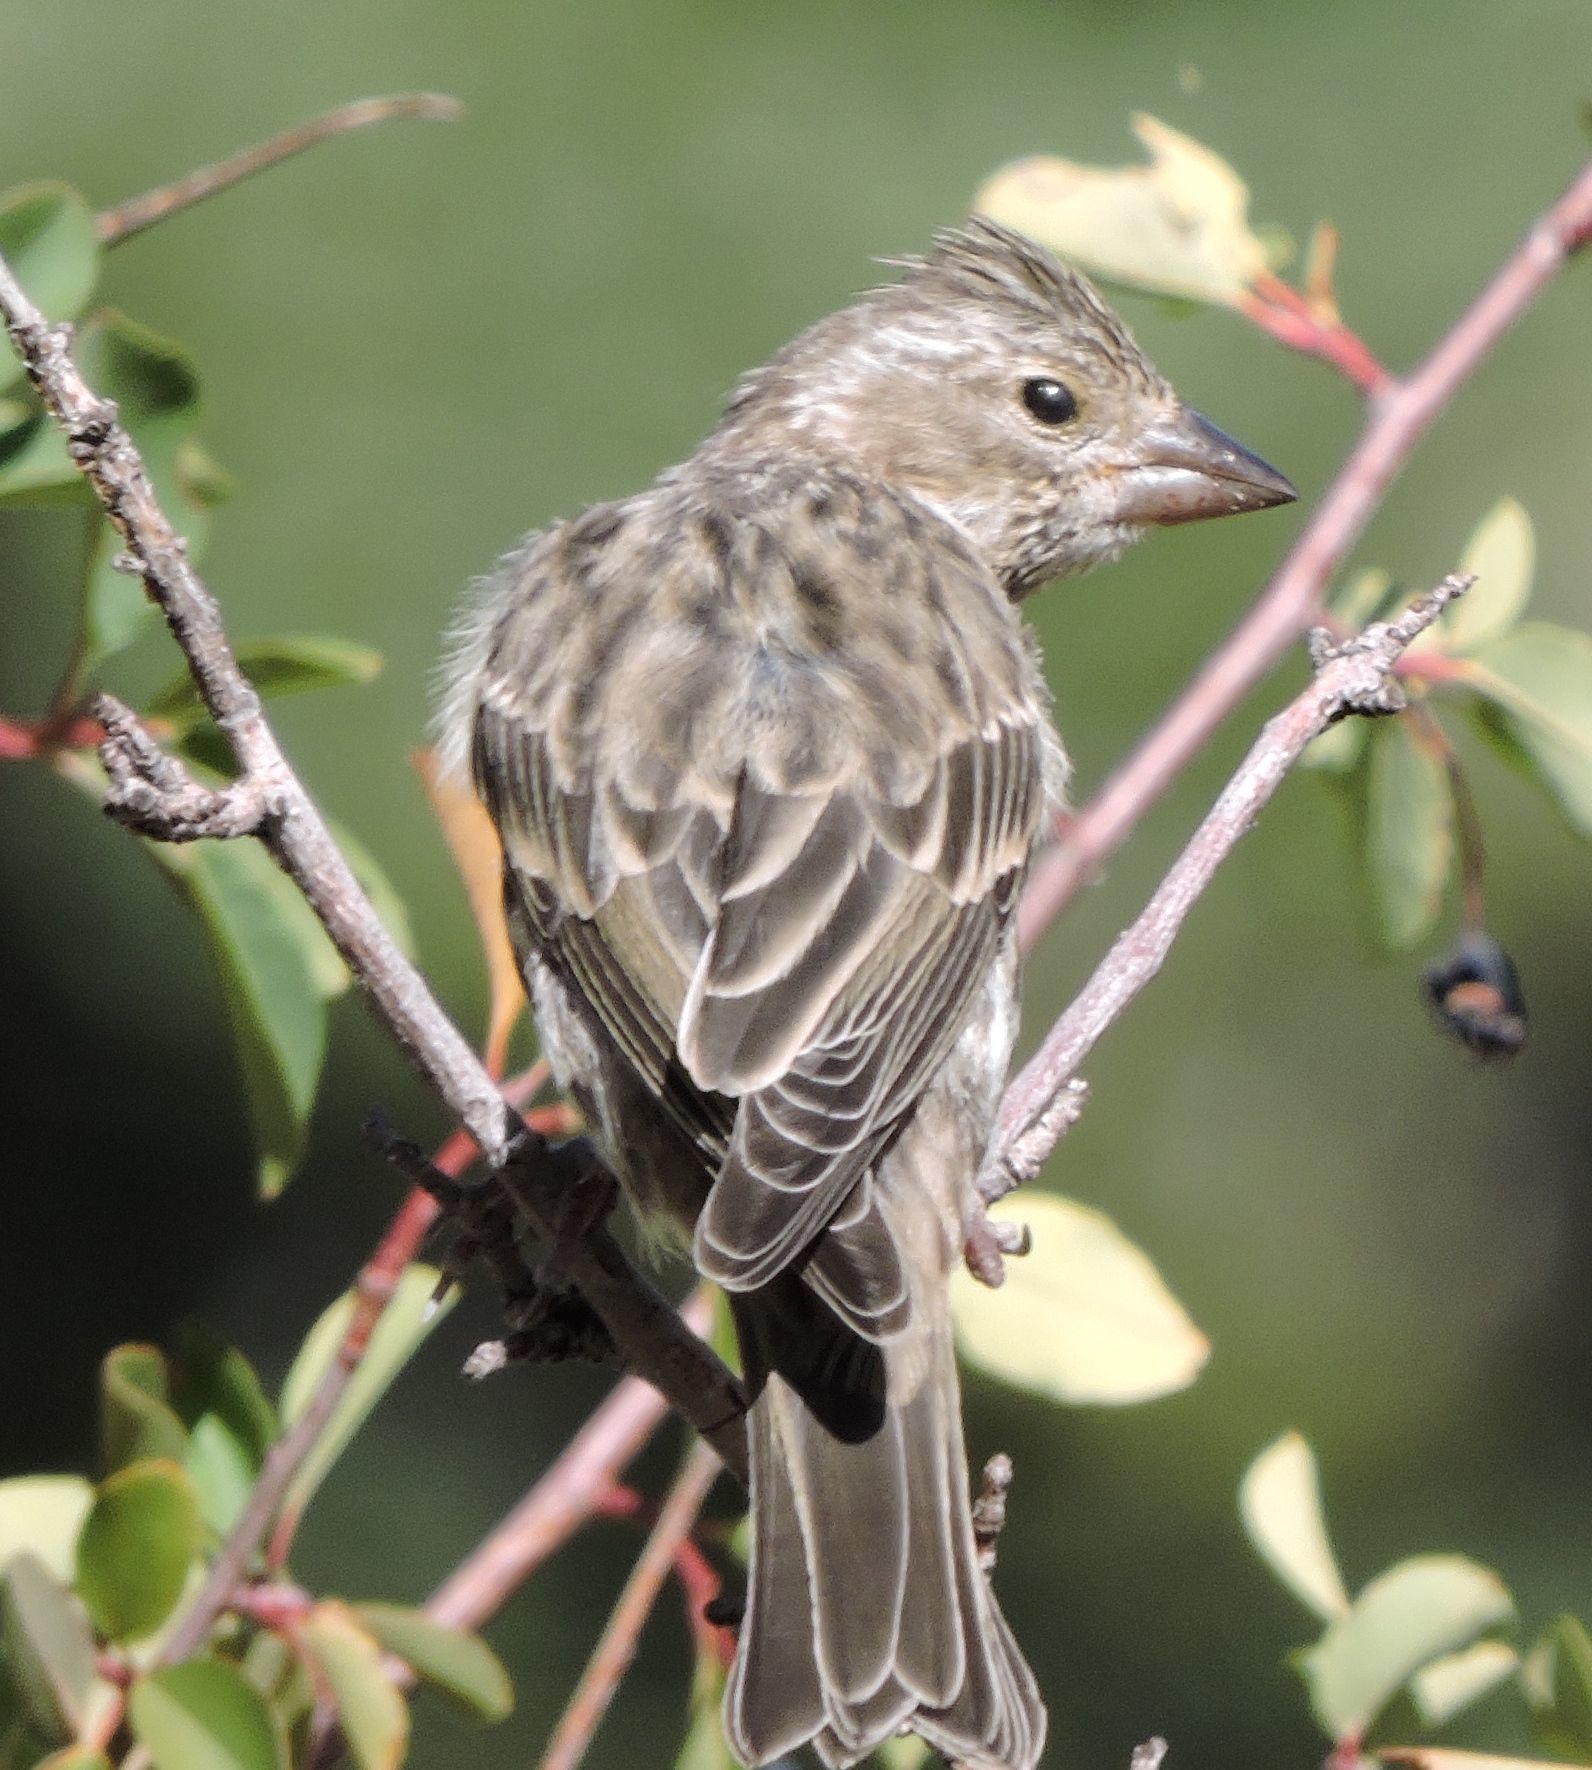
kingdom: Animalia
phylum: Chordata
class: Aves
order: Passeriformes
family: Fringillidae
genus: Haemorhous
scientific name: Haemorhous cassinii
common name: Cassin's finch
